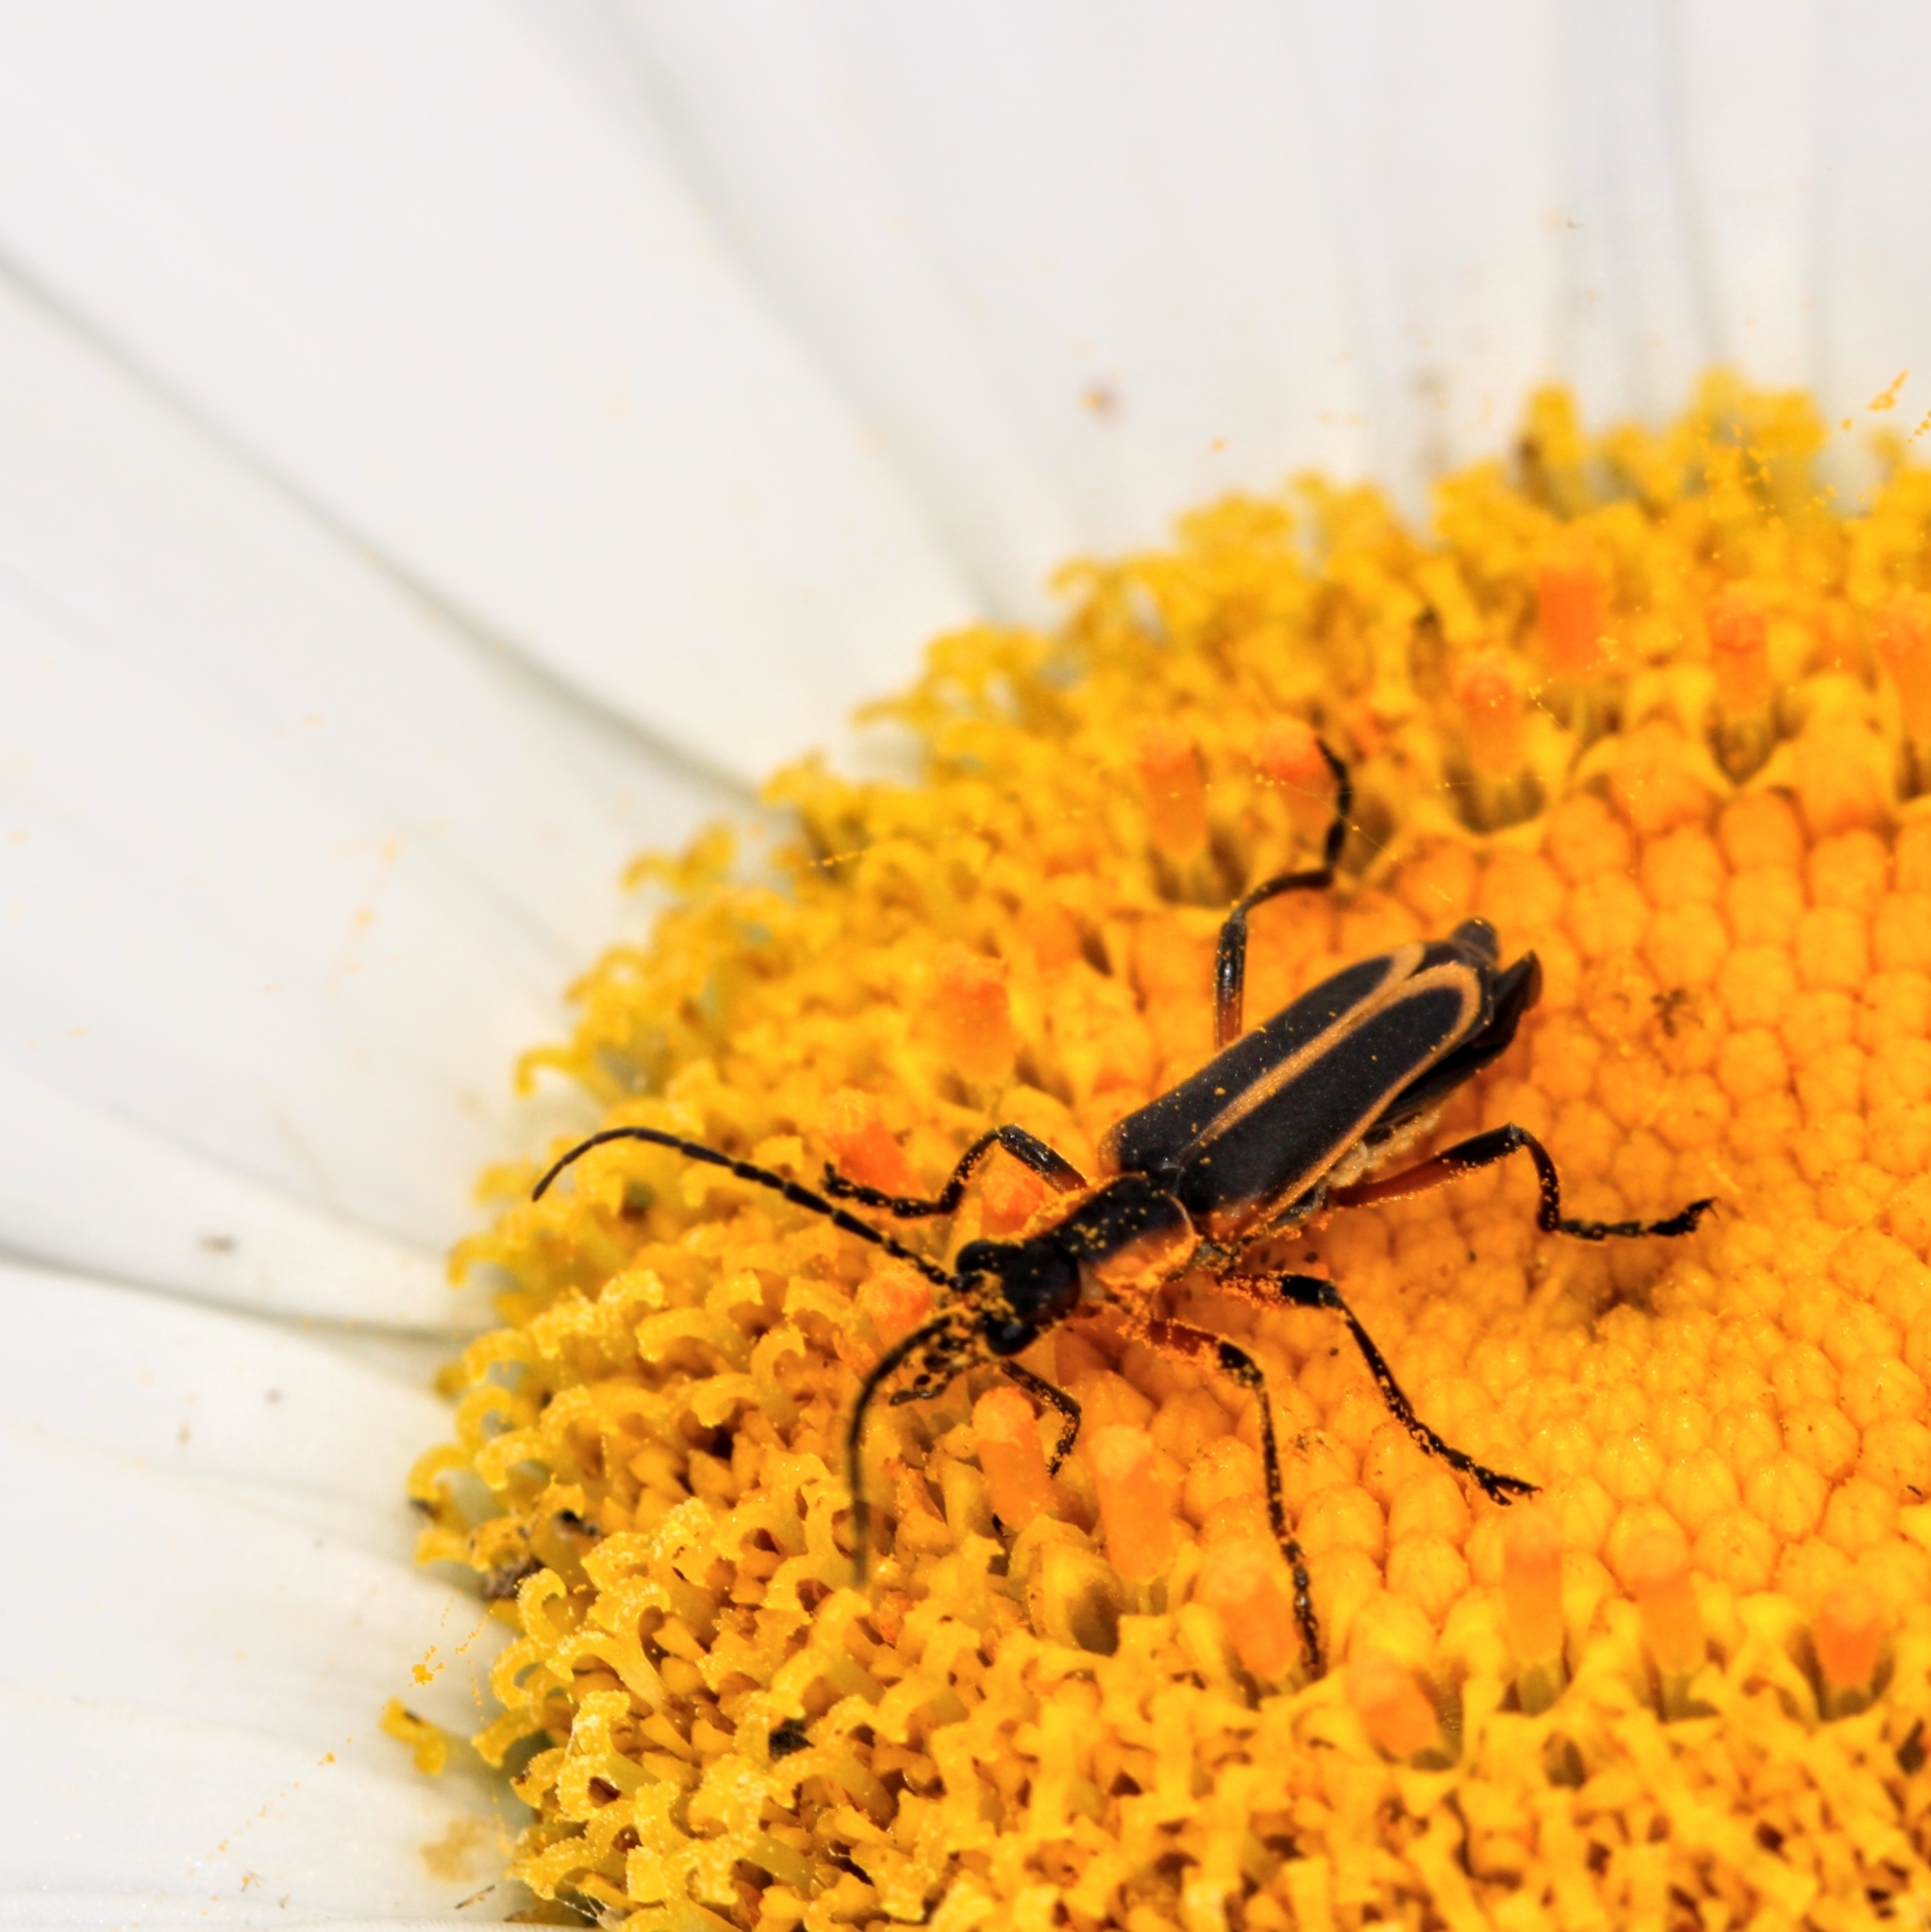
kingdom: Animalia
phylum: Arthropoda
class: Insecta
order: Coleoptera
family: Cantharidae
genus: Chauliognathus
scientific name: Chauliognathus marginatus
